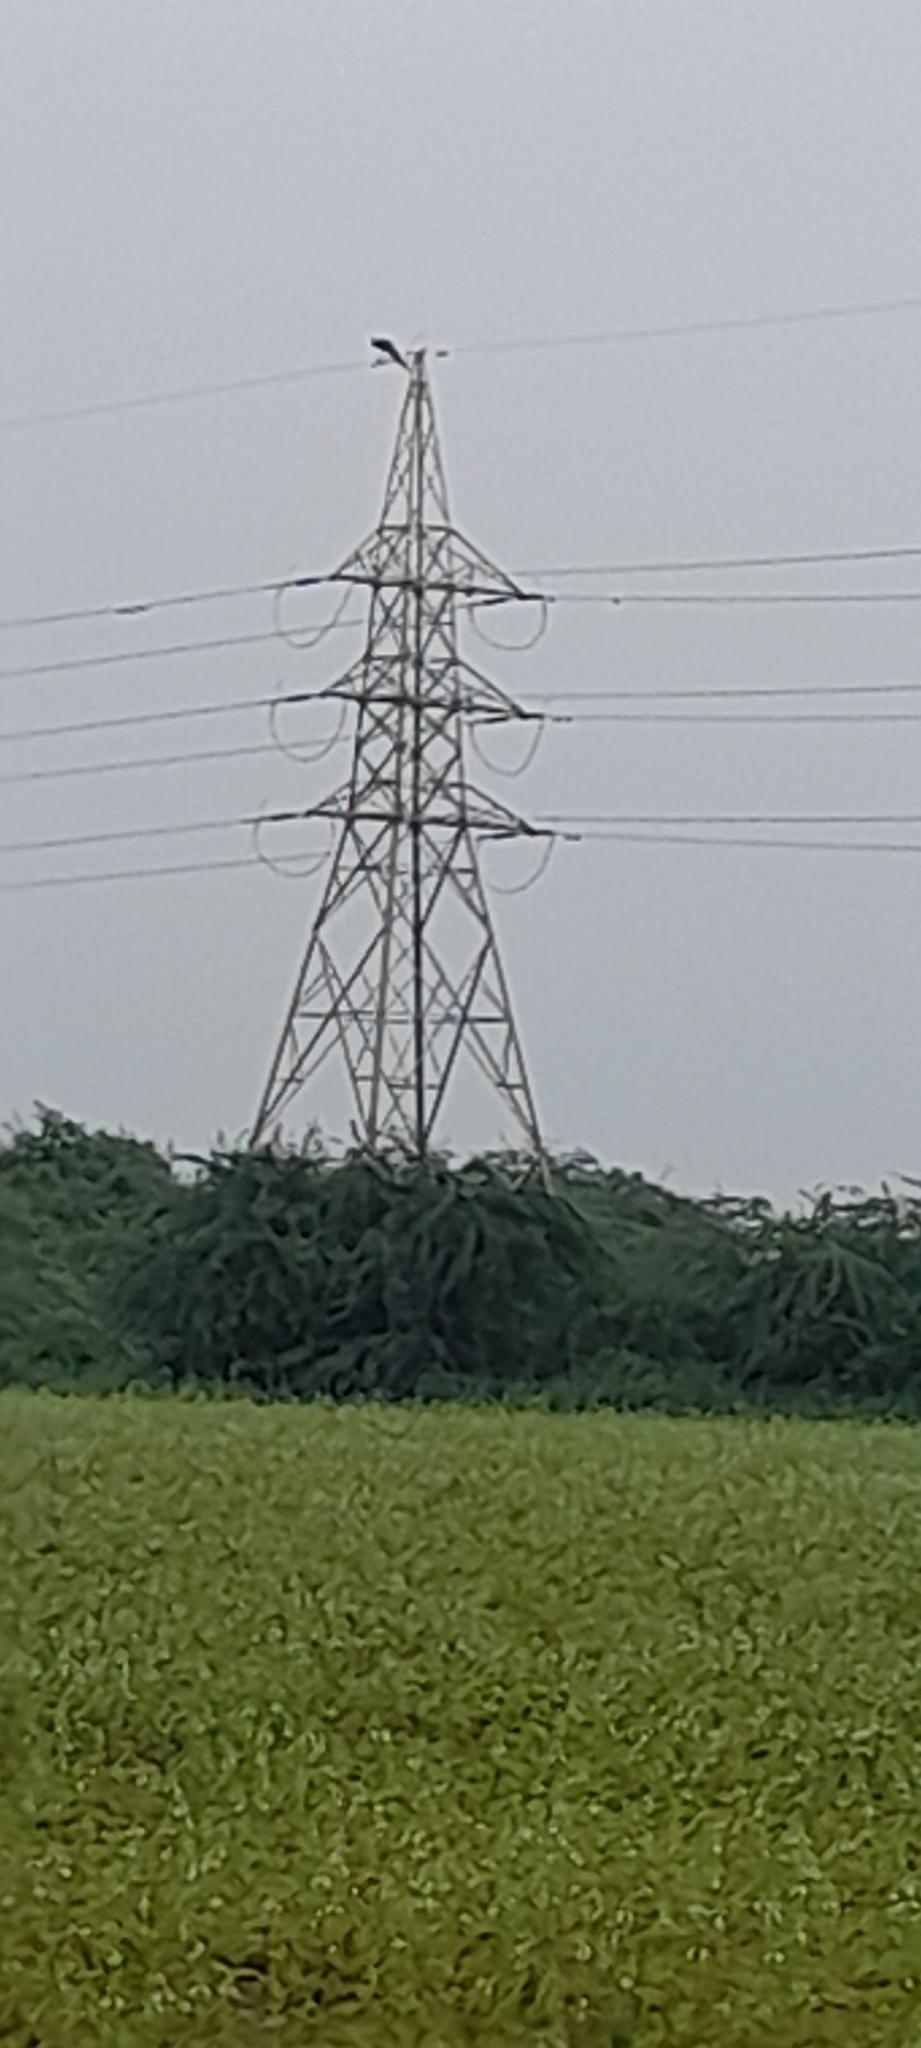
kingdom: Animalia
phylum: Chordata
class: Aves
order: Galliformes
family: Phasianidae
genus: Pavo
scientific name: Pavo cristatus
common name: Indian peafowl
